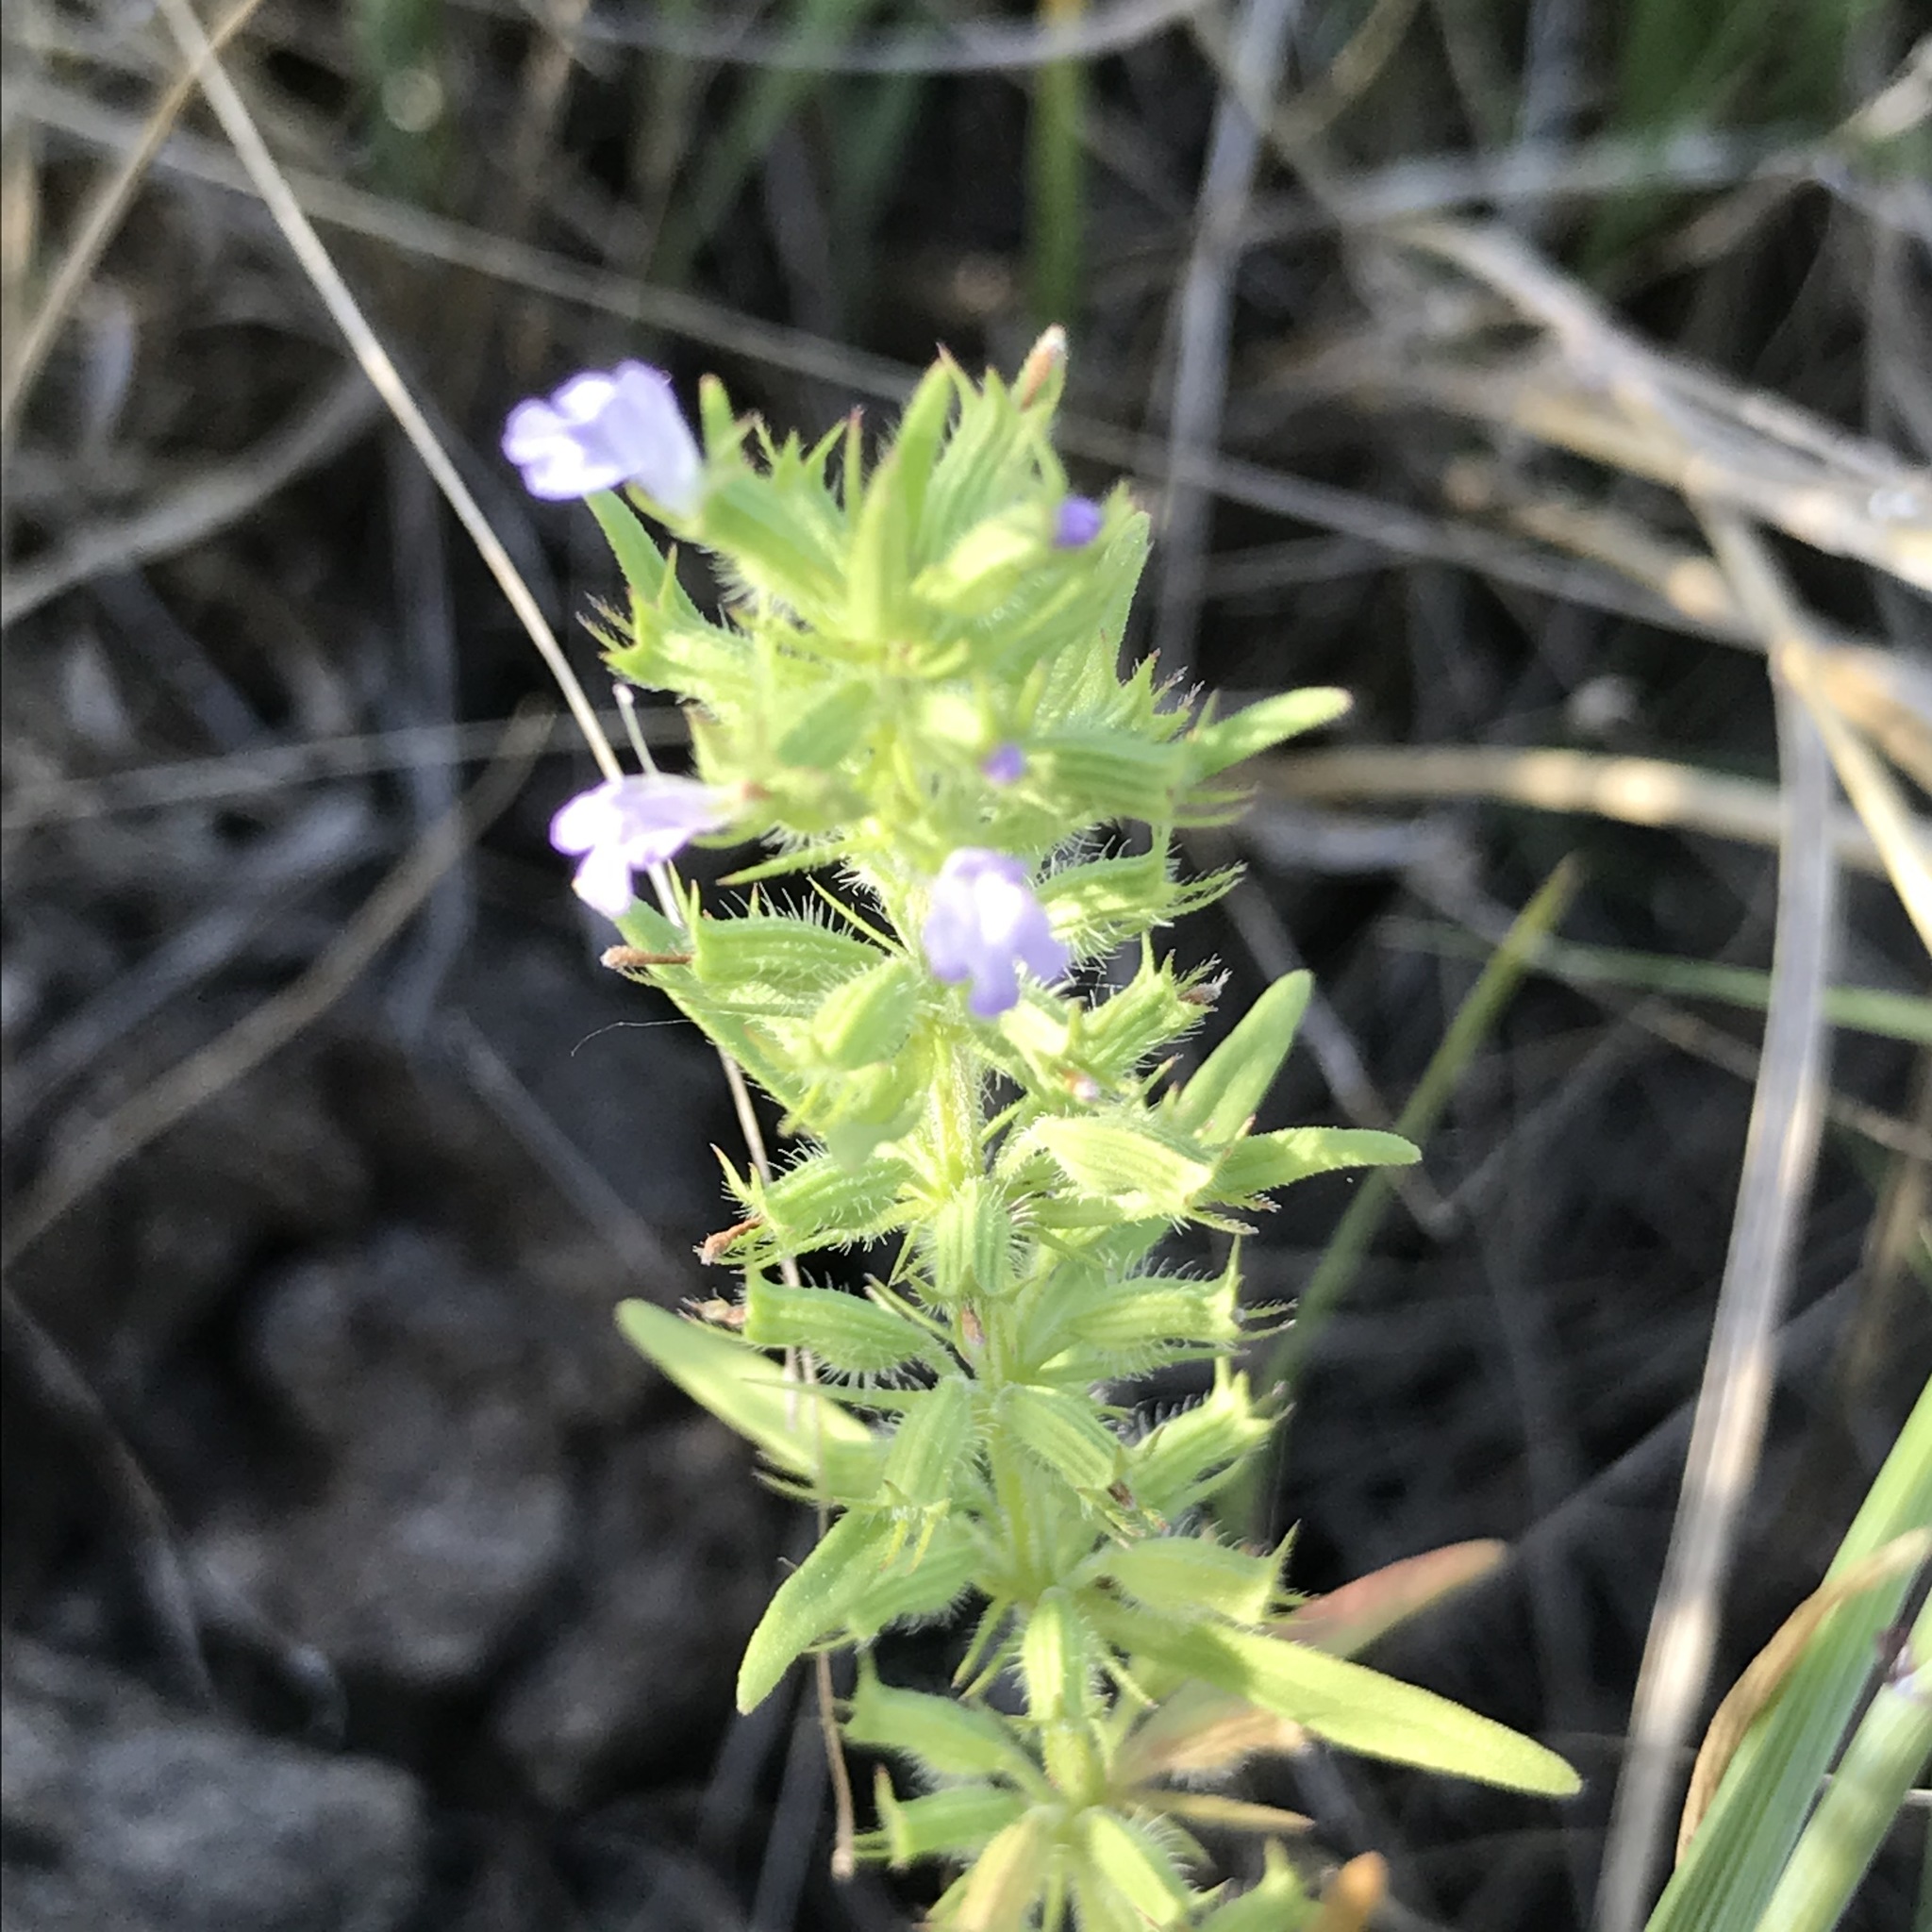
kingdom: Plantae
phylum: Tracheophyta
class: Magnoliopsida
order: Lamiales
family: Lamiaceae
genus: Hedeoma
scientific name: Hedeoma hispida
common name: Mock pennyroyal
